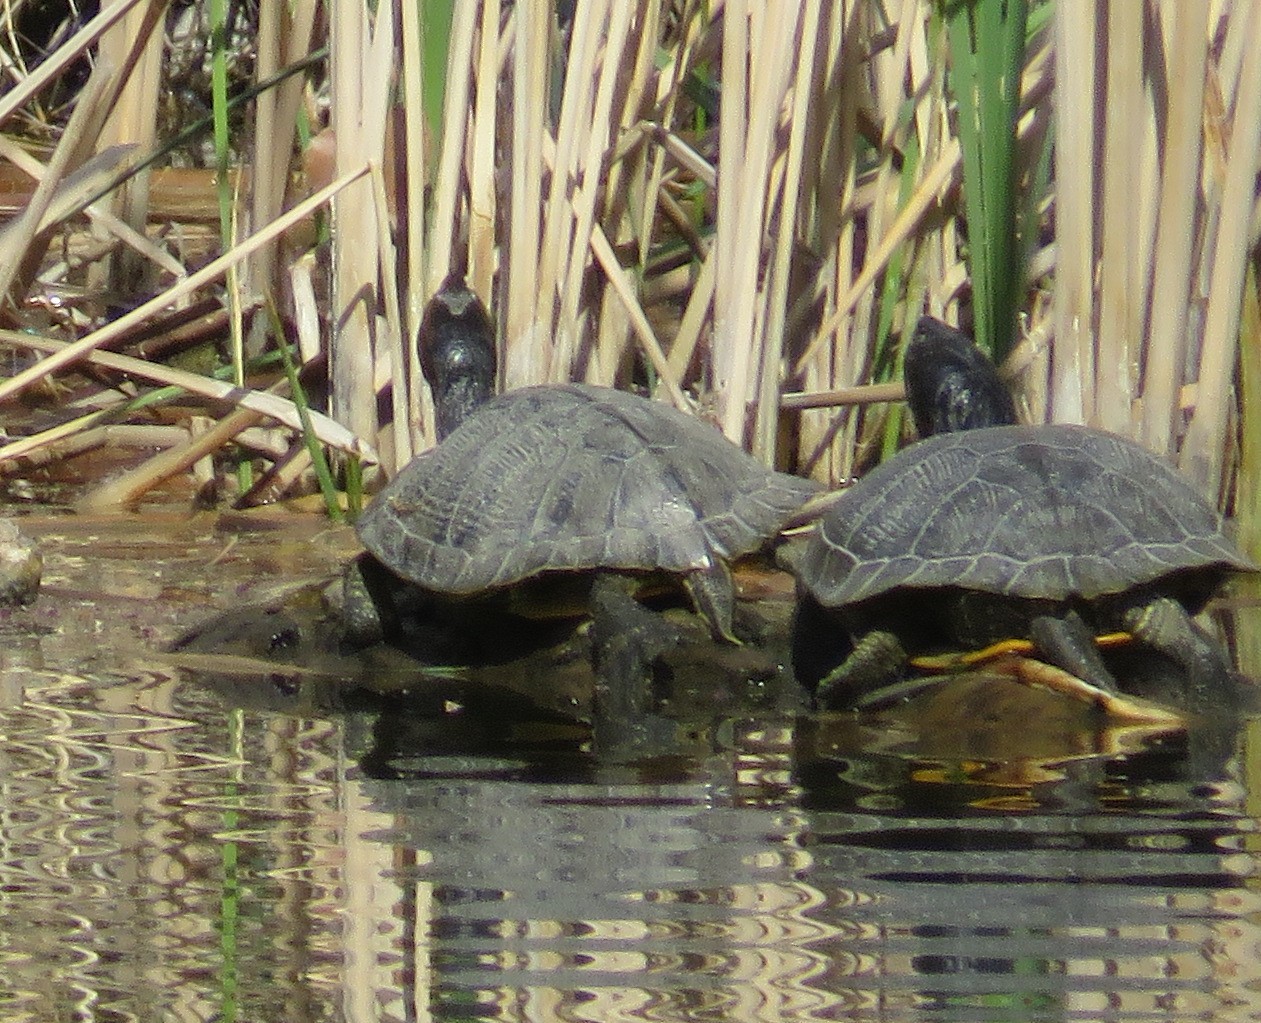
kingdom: Animalia
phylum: Chordata
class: Testudines
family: Emydidae
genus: Trachemys
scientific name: Trachemys scripta
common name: Slider
